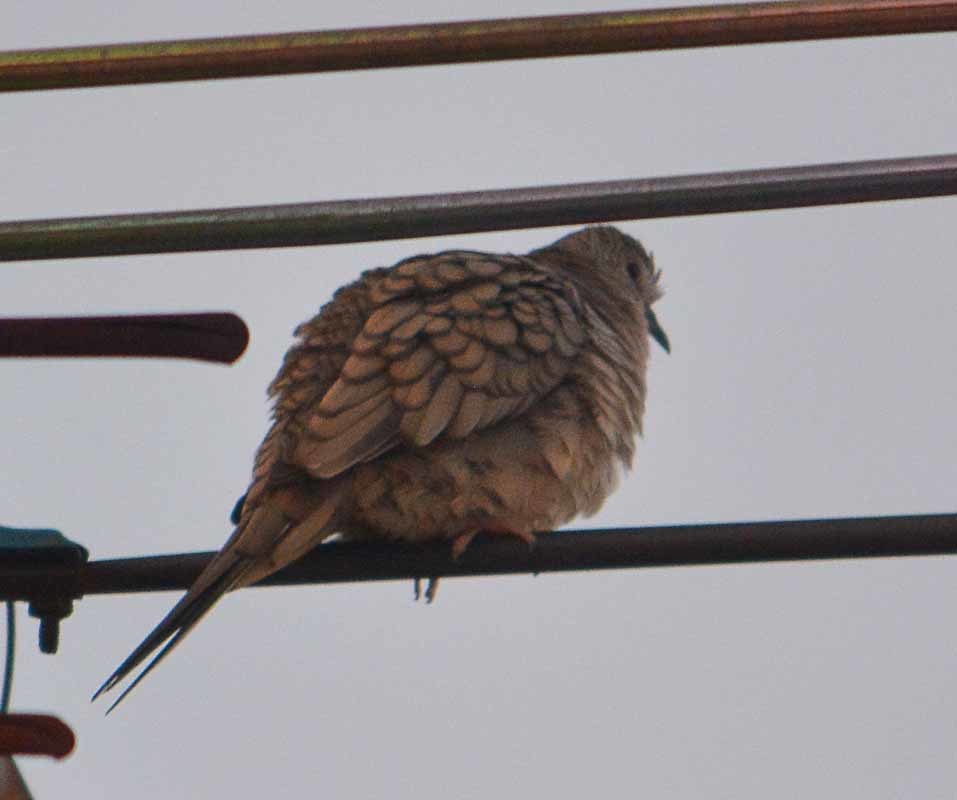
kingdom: Animalia
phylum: Chordata
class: Aves
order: Columbiformes
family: Columbidae
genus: Columbina
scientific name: Columbina inca
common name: Inca dove
